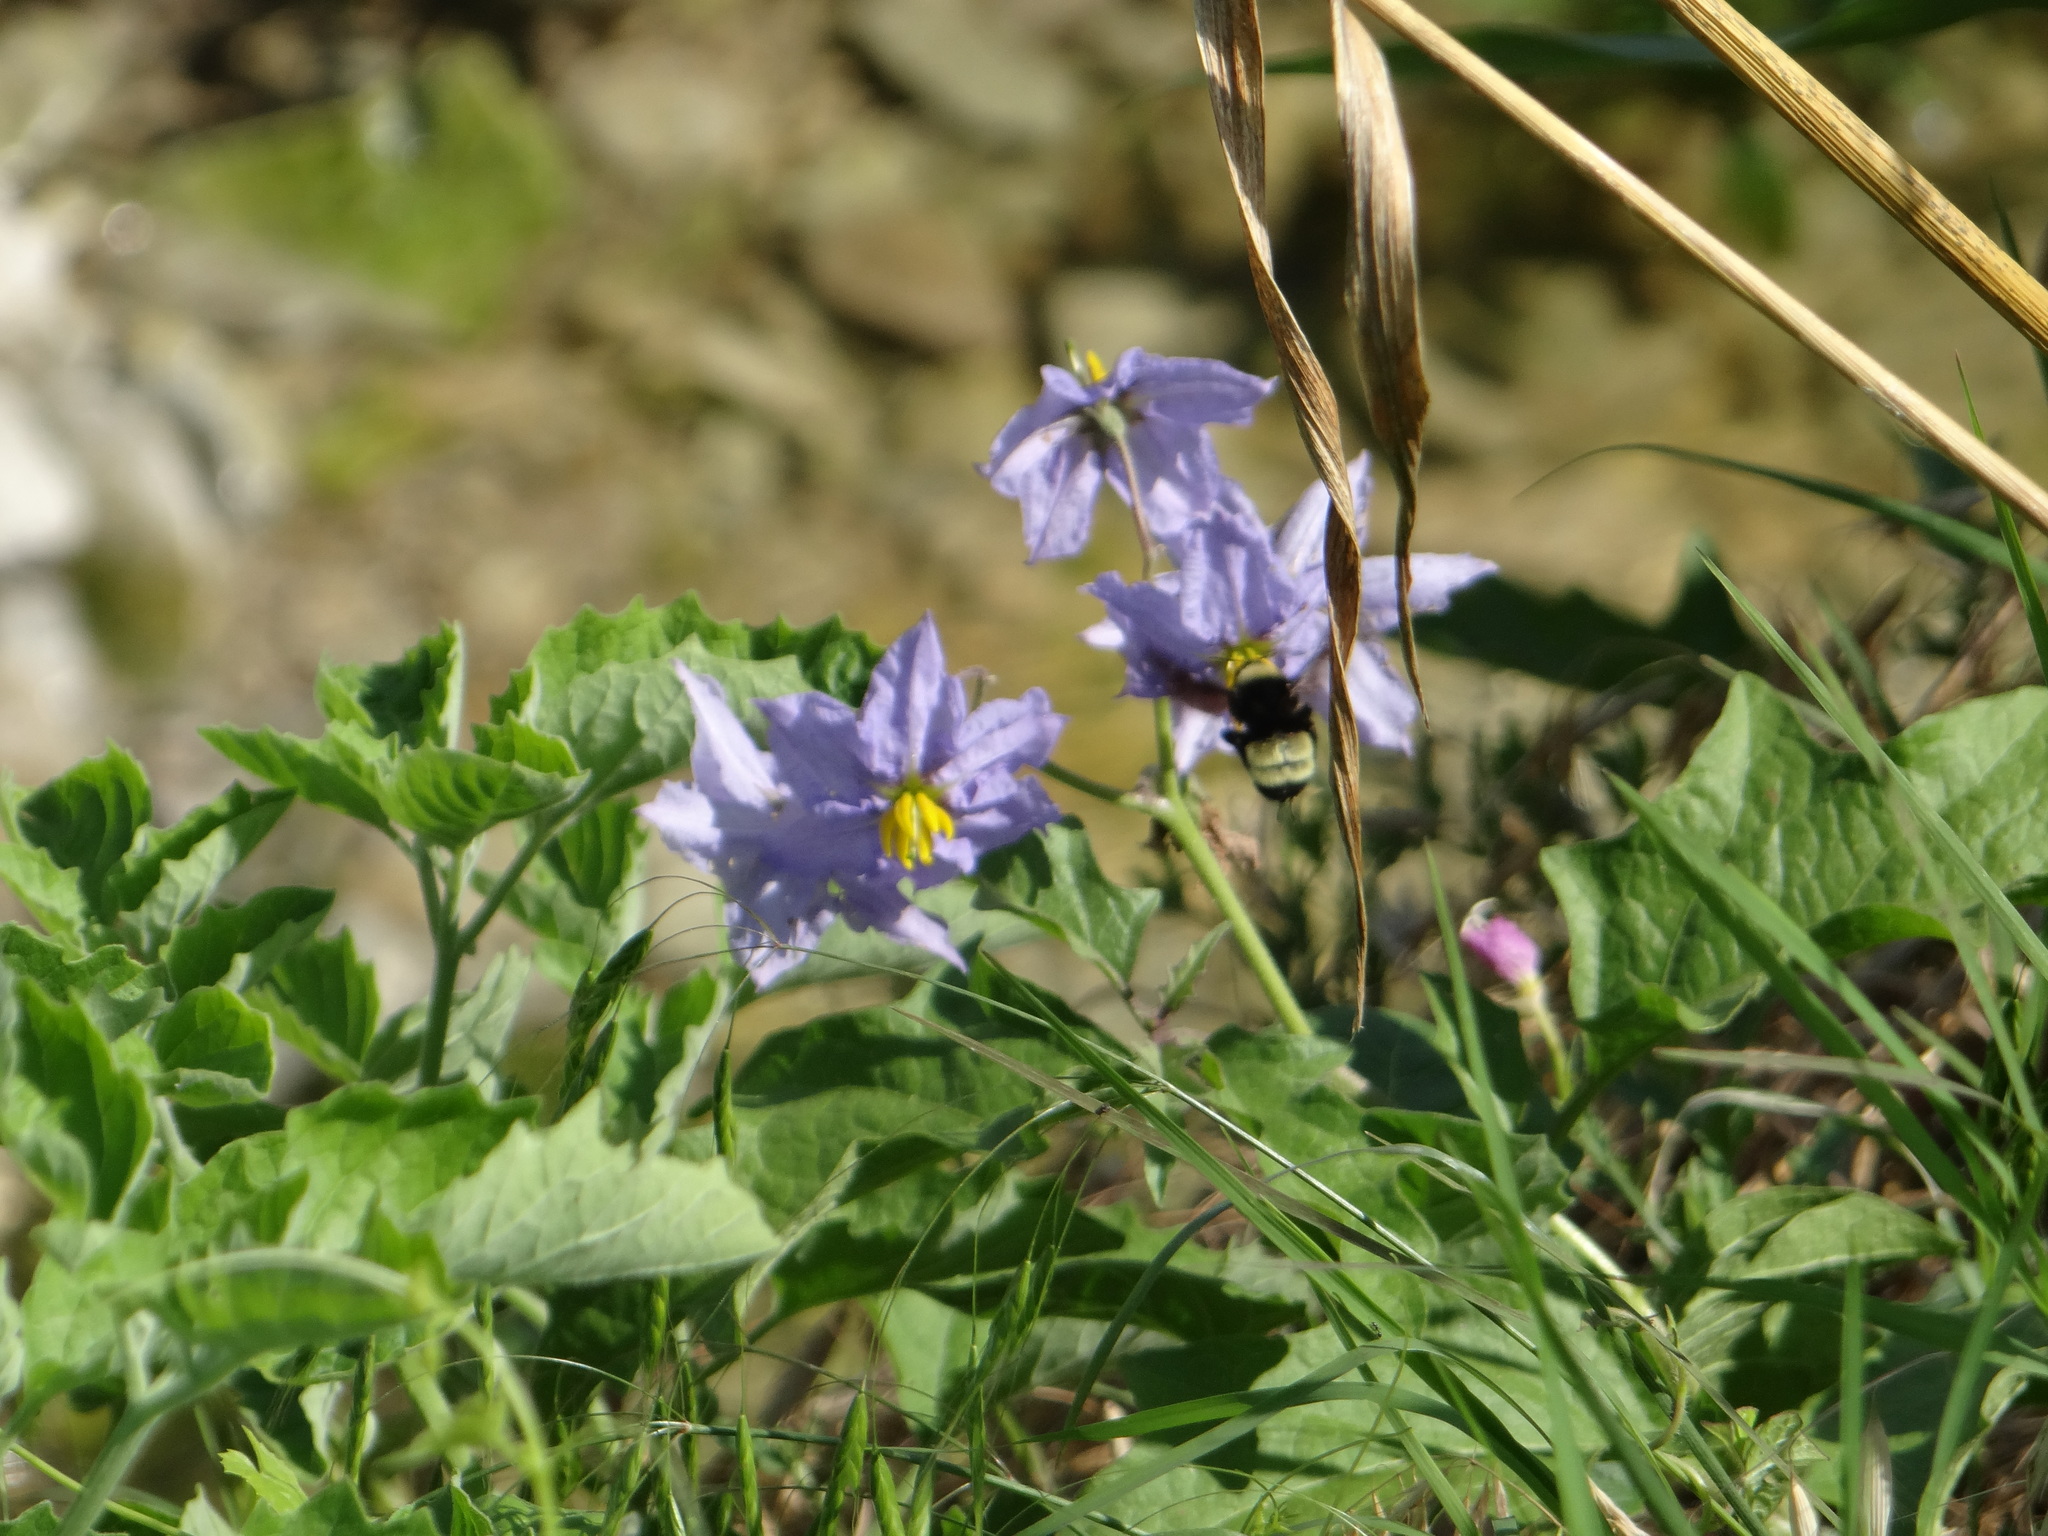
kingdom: Animalia
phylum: Arthropoda
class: Insecta
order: Hymenoptera
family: Apidae
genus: Bombus
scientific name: Bombus pensylvanicus
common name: Bumble bee
